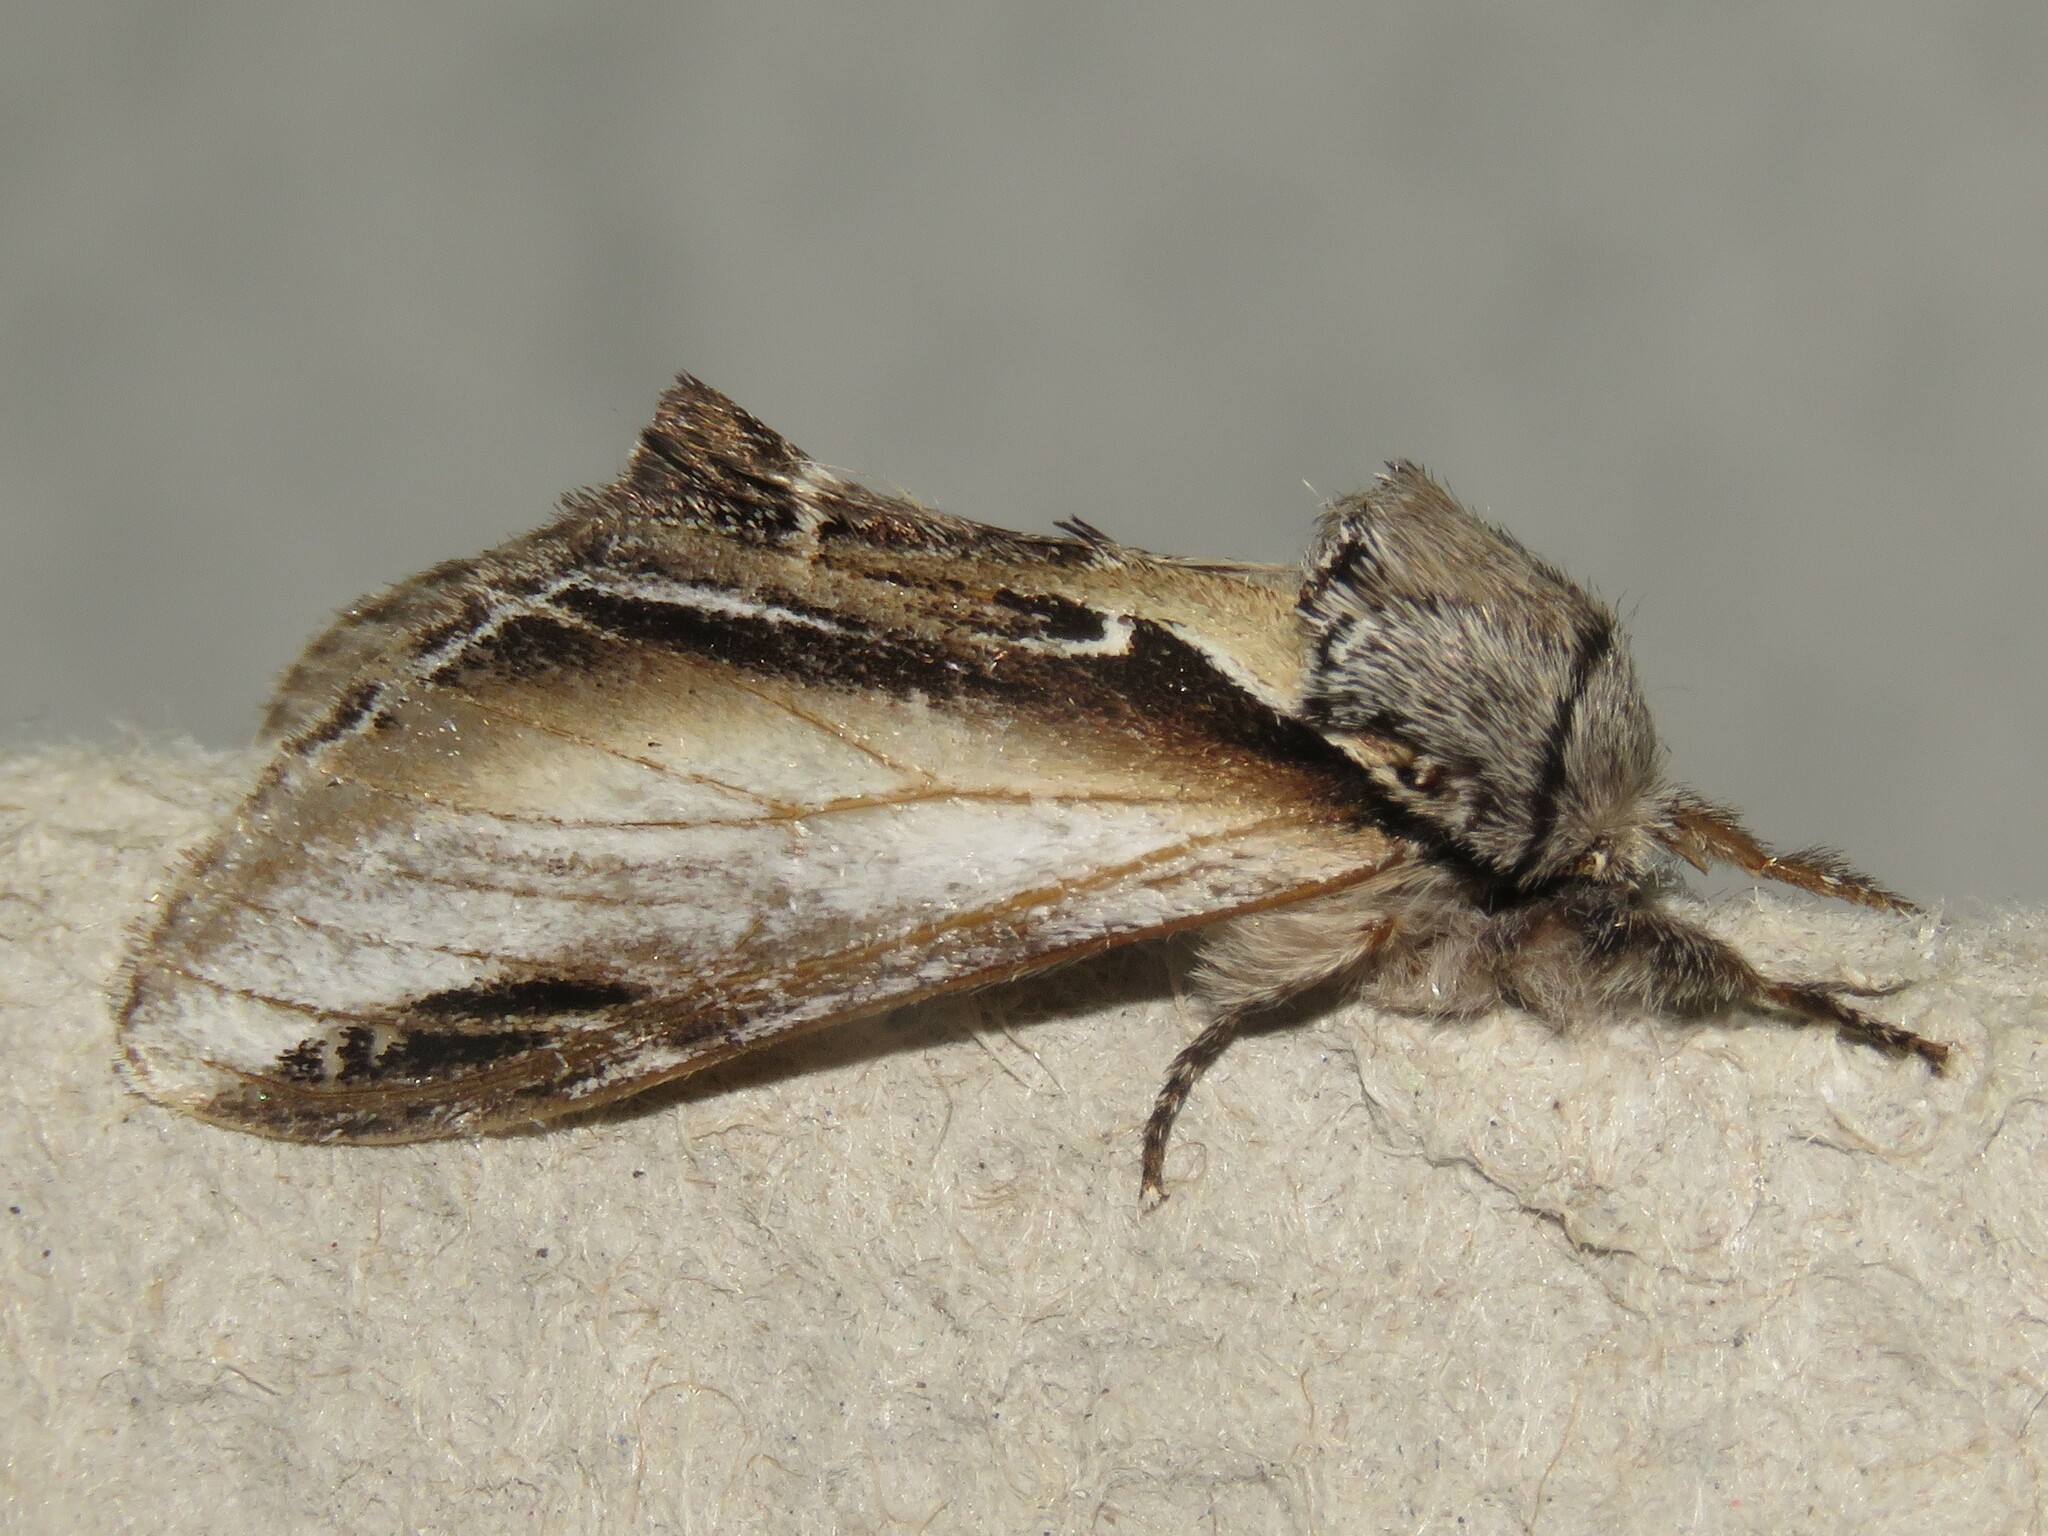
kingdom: Animalia
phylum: Arthropoda
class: Insecta
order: Lepidoptera
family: Notodontidae
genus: Pheosia
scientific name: Pheosia rimosa
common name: Black-rimmed prominent
